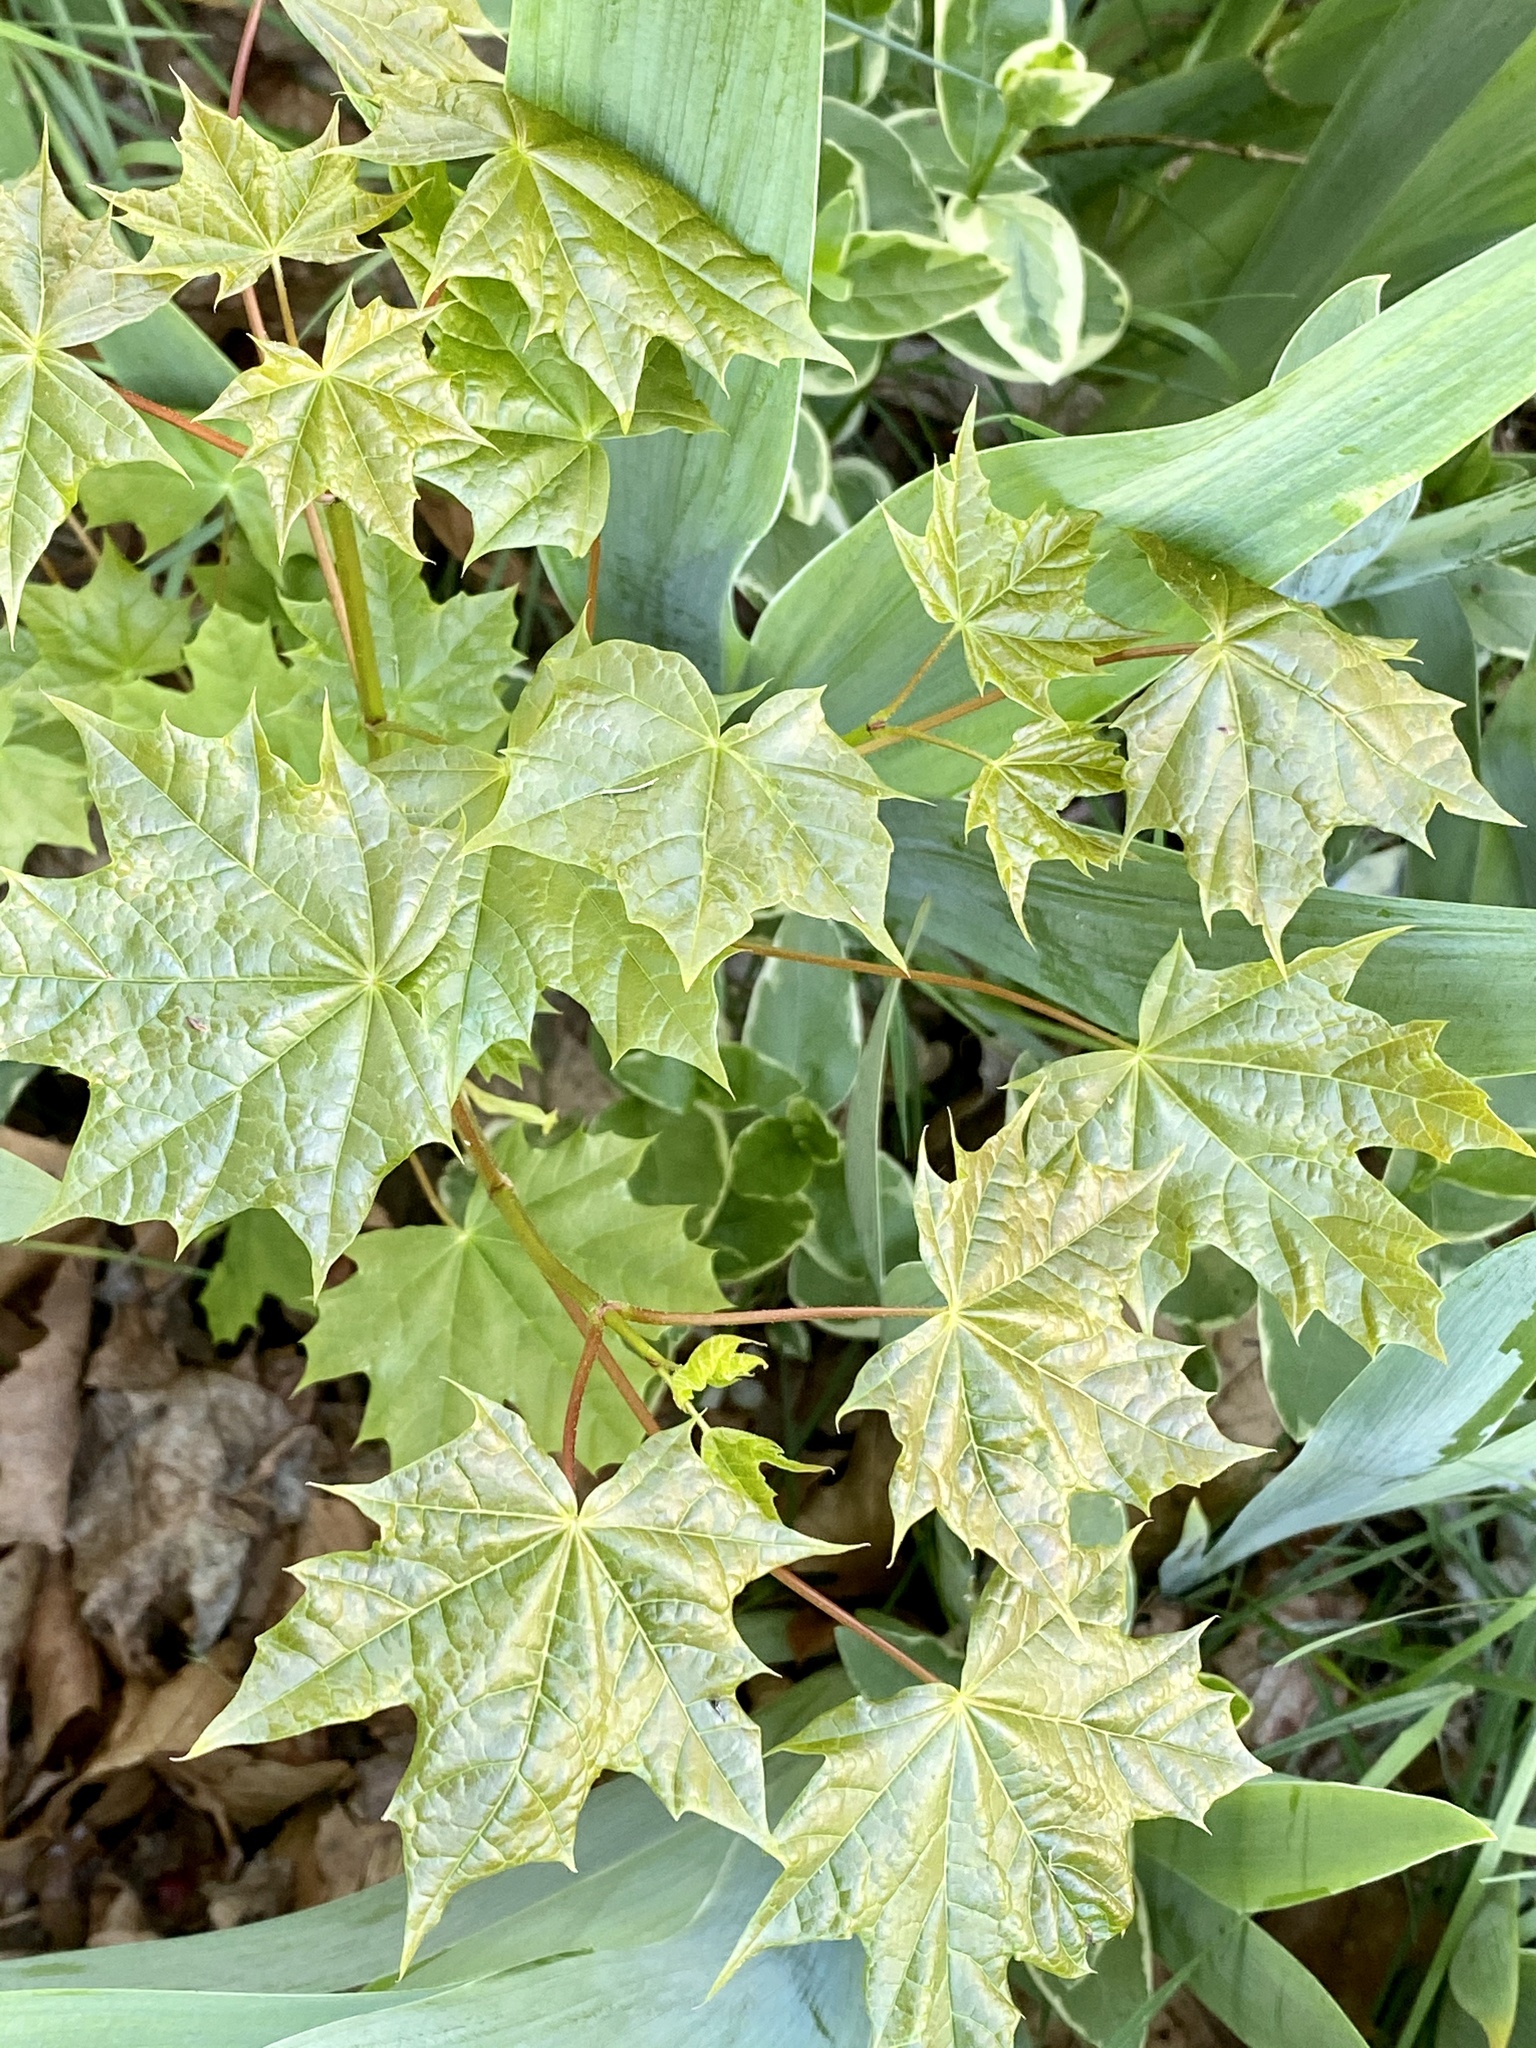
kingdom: Plantae
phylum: Tracheophyta
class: Magnoliopsida
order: Sapindales
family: Sapindaceae
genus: Acer
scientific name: Acer platanoides
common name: Norway maple
